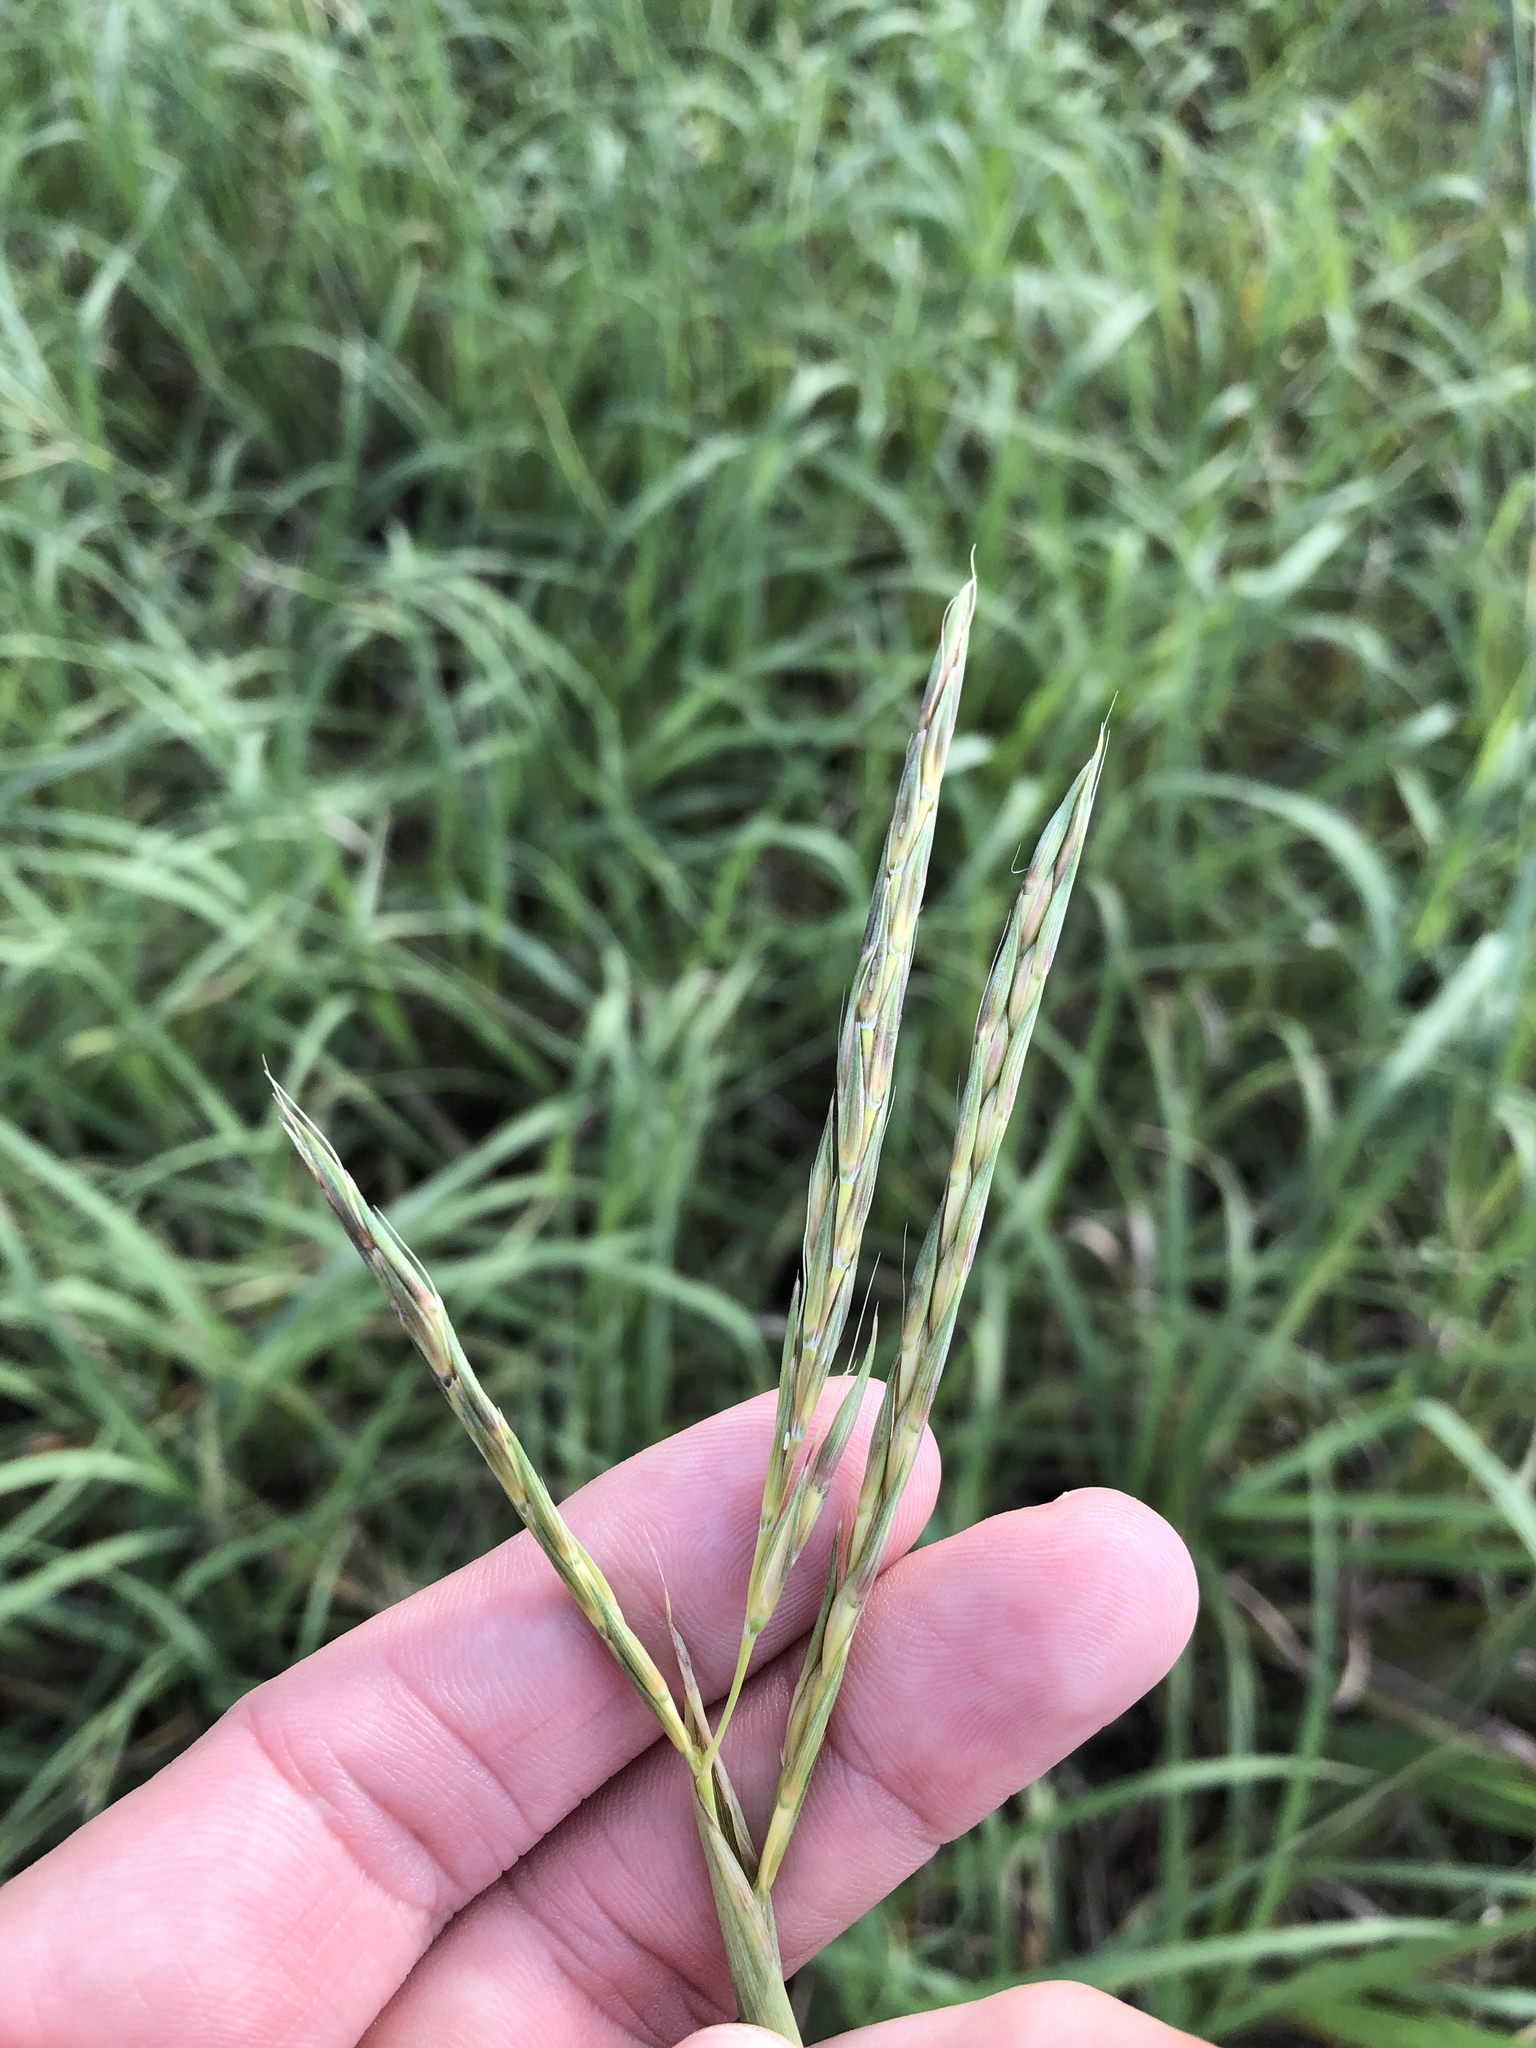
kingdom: Plantae
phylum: Tracheophyta
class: Liliopsida
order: Poales
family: Poaceae
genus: Andropogon
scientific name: Andropogon gerardi
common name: Big bluestem
